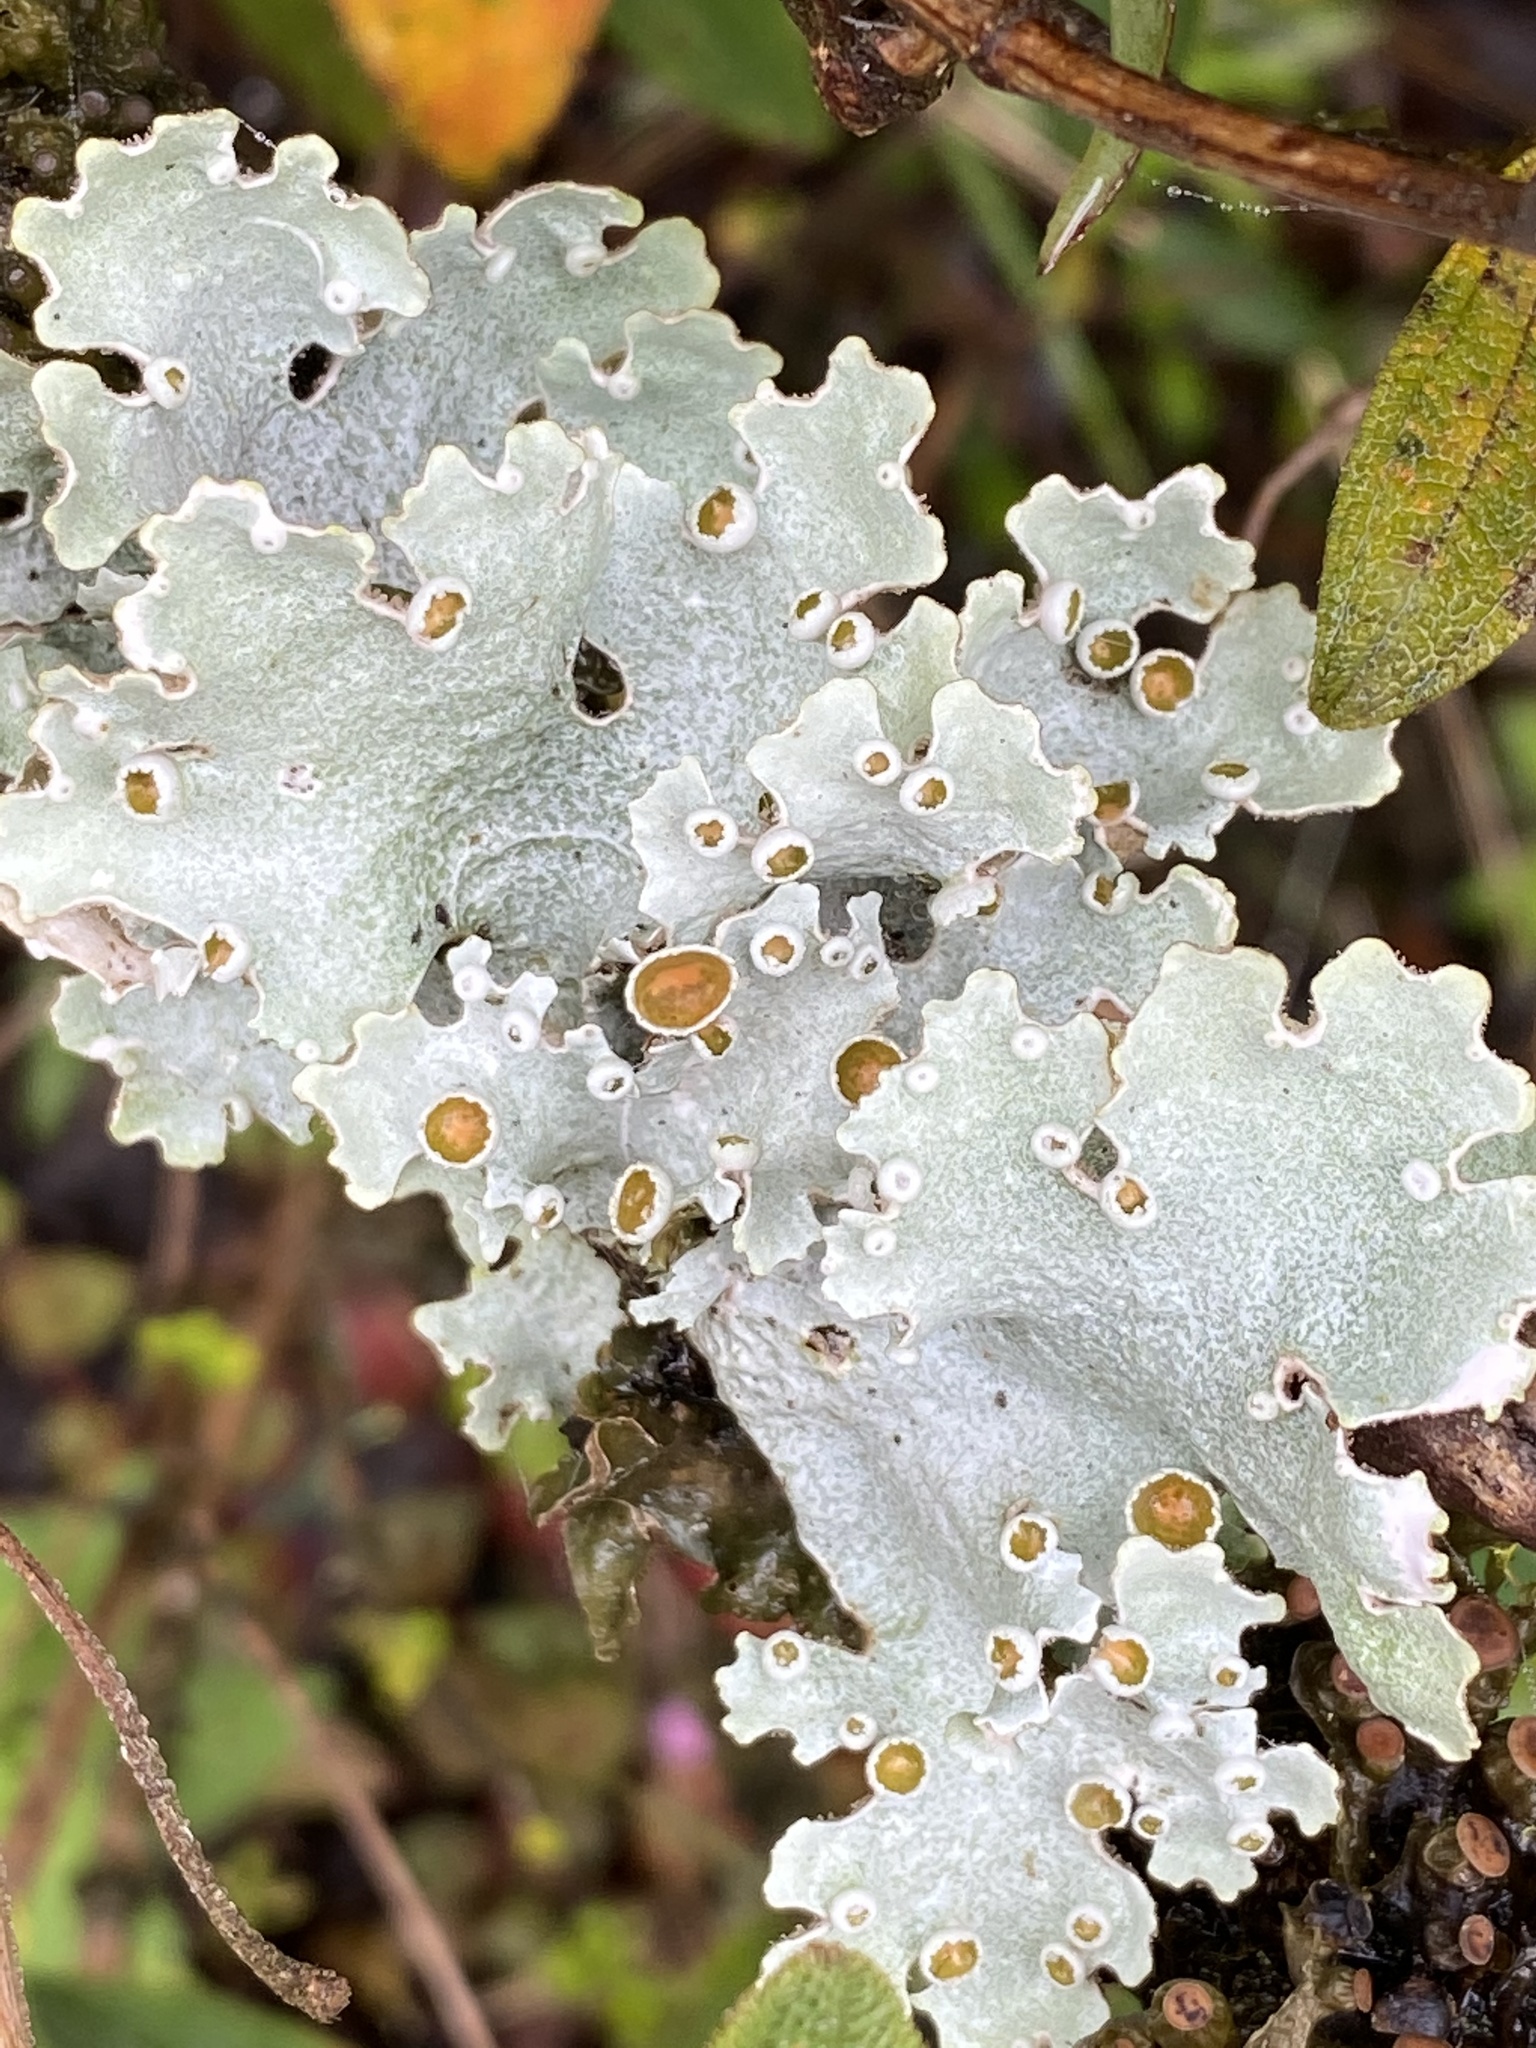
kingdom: Fungi
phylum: Ascomycota
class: Lecanoromycetes
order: Peltigerales
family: Lobariaceae
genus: Lobariella
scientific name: Lobariella pallida
